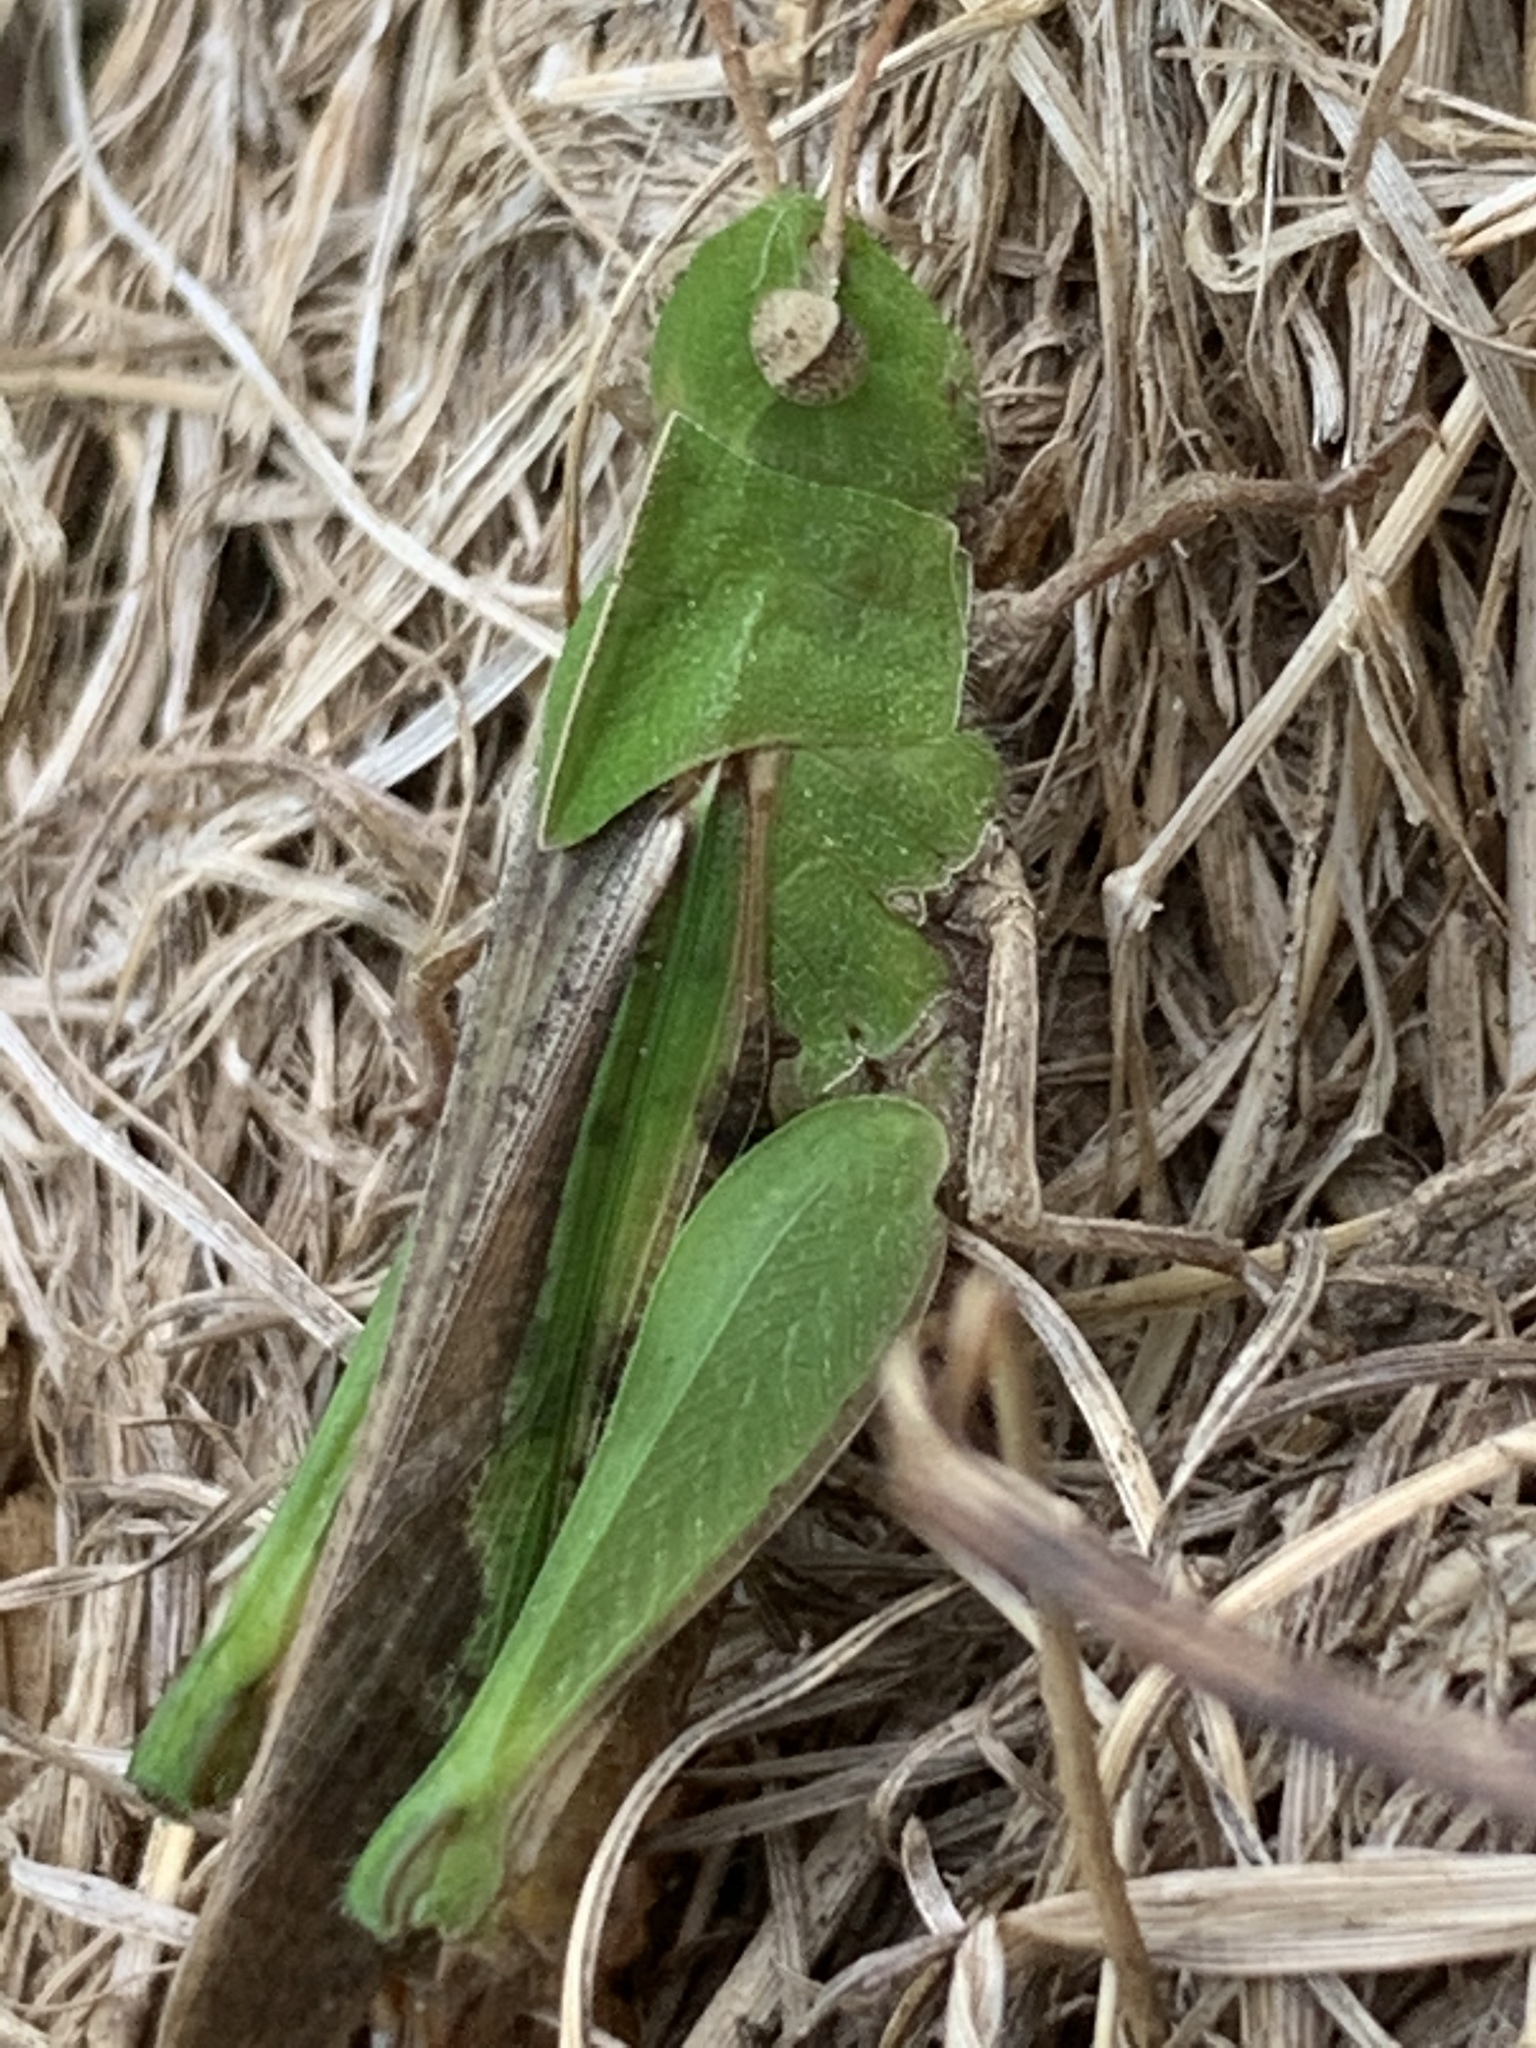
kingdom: Animalia
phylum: Arthropoda
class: Insecta
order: Orthoptera
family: Acrididae
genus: Chortophaga
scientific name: Chortophaga viridifasciata
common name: Green-striped grasshopper
